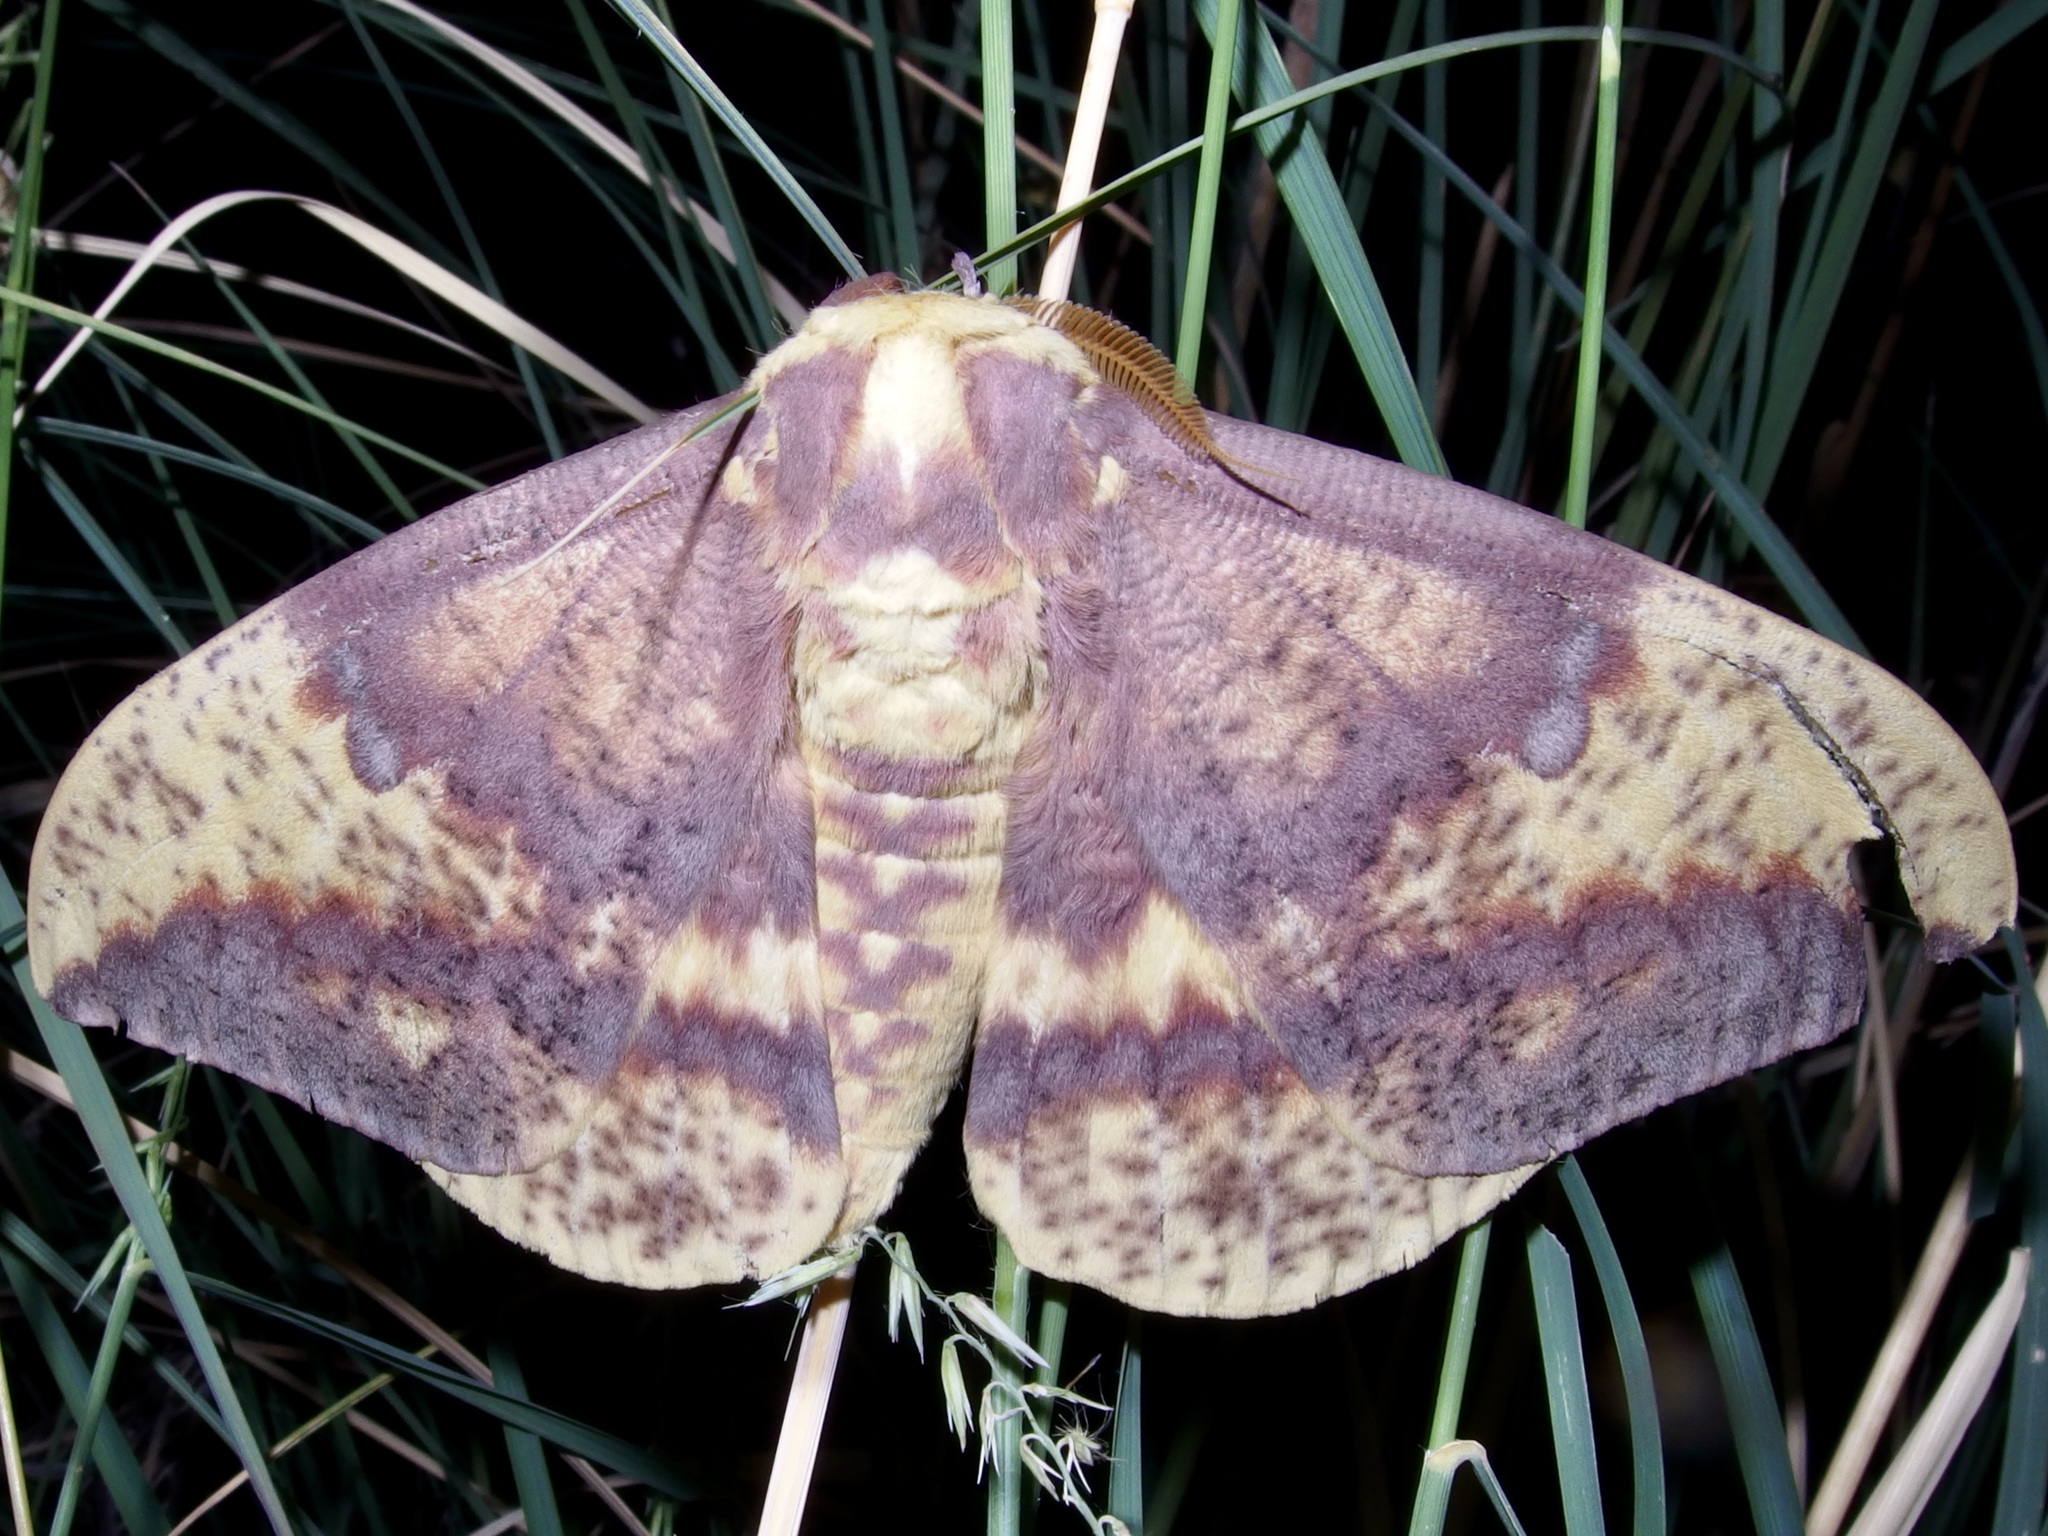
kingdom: Animalia
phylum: Arthropoda
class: Insecta
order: Lepidoptera
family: Saturniidae
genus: Eacles
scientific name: Eacles oslari
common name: Oslar's imperial moth
